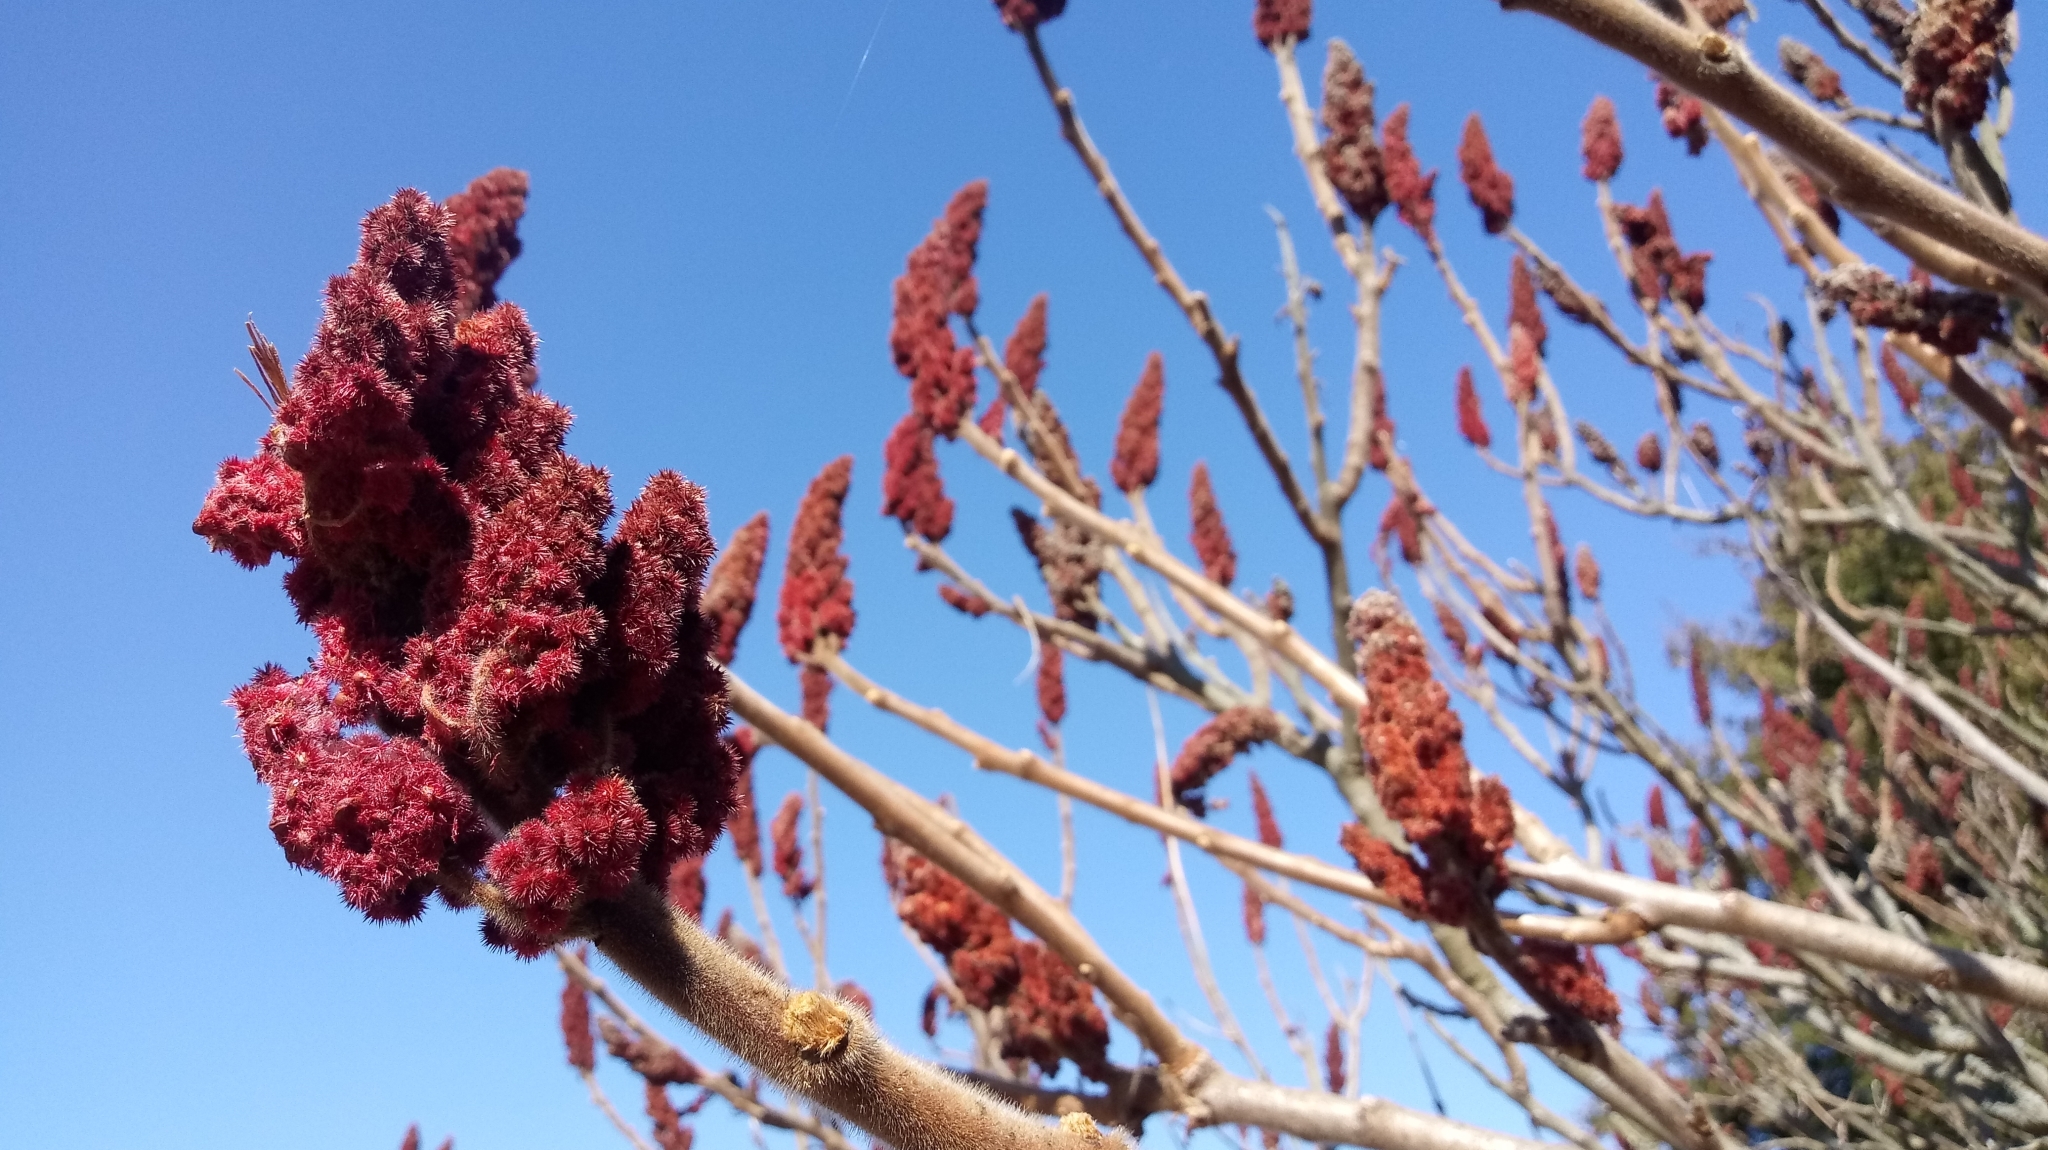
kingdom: Plantae
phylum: Tracheophyta
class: Magnoliopsida
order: Sapindales
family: Anacardiaceae
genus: Rhus
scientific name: Rhus typhina
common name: Staghorn sumac
